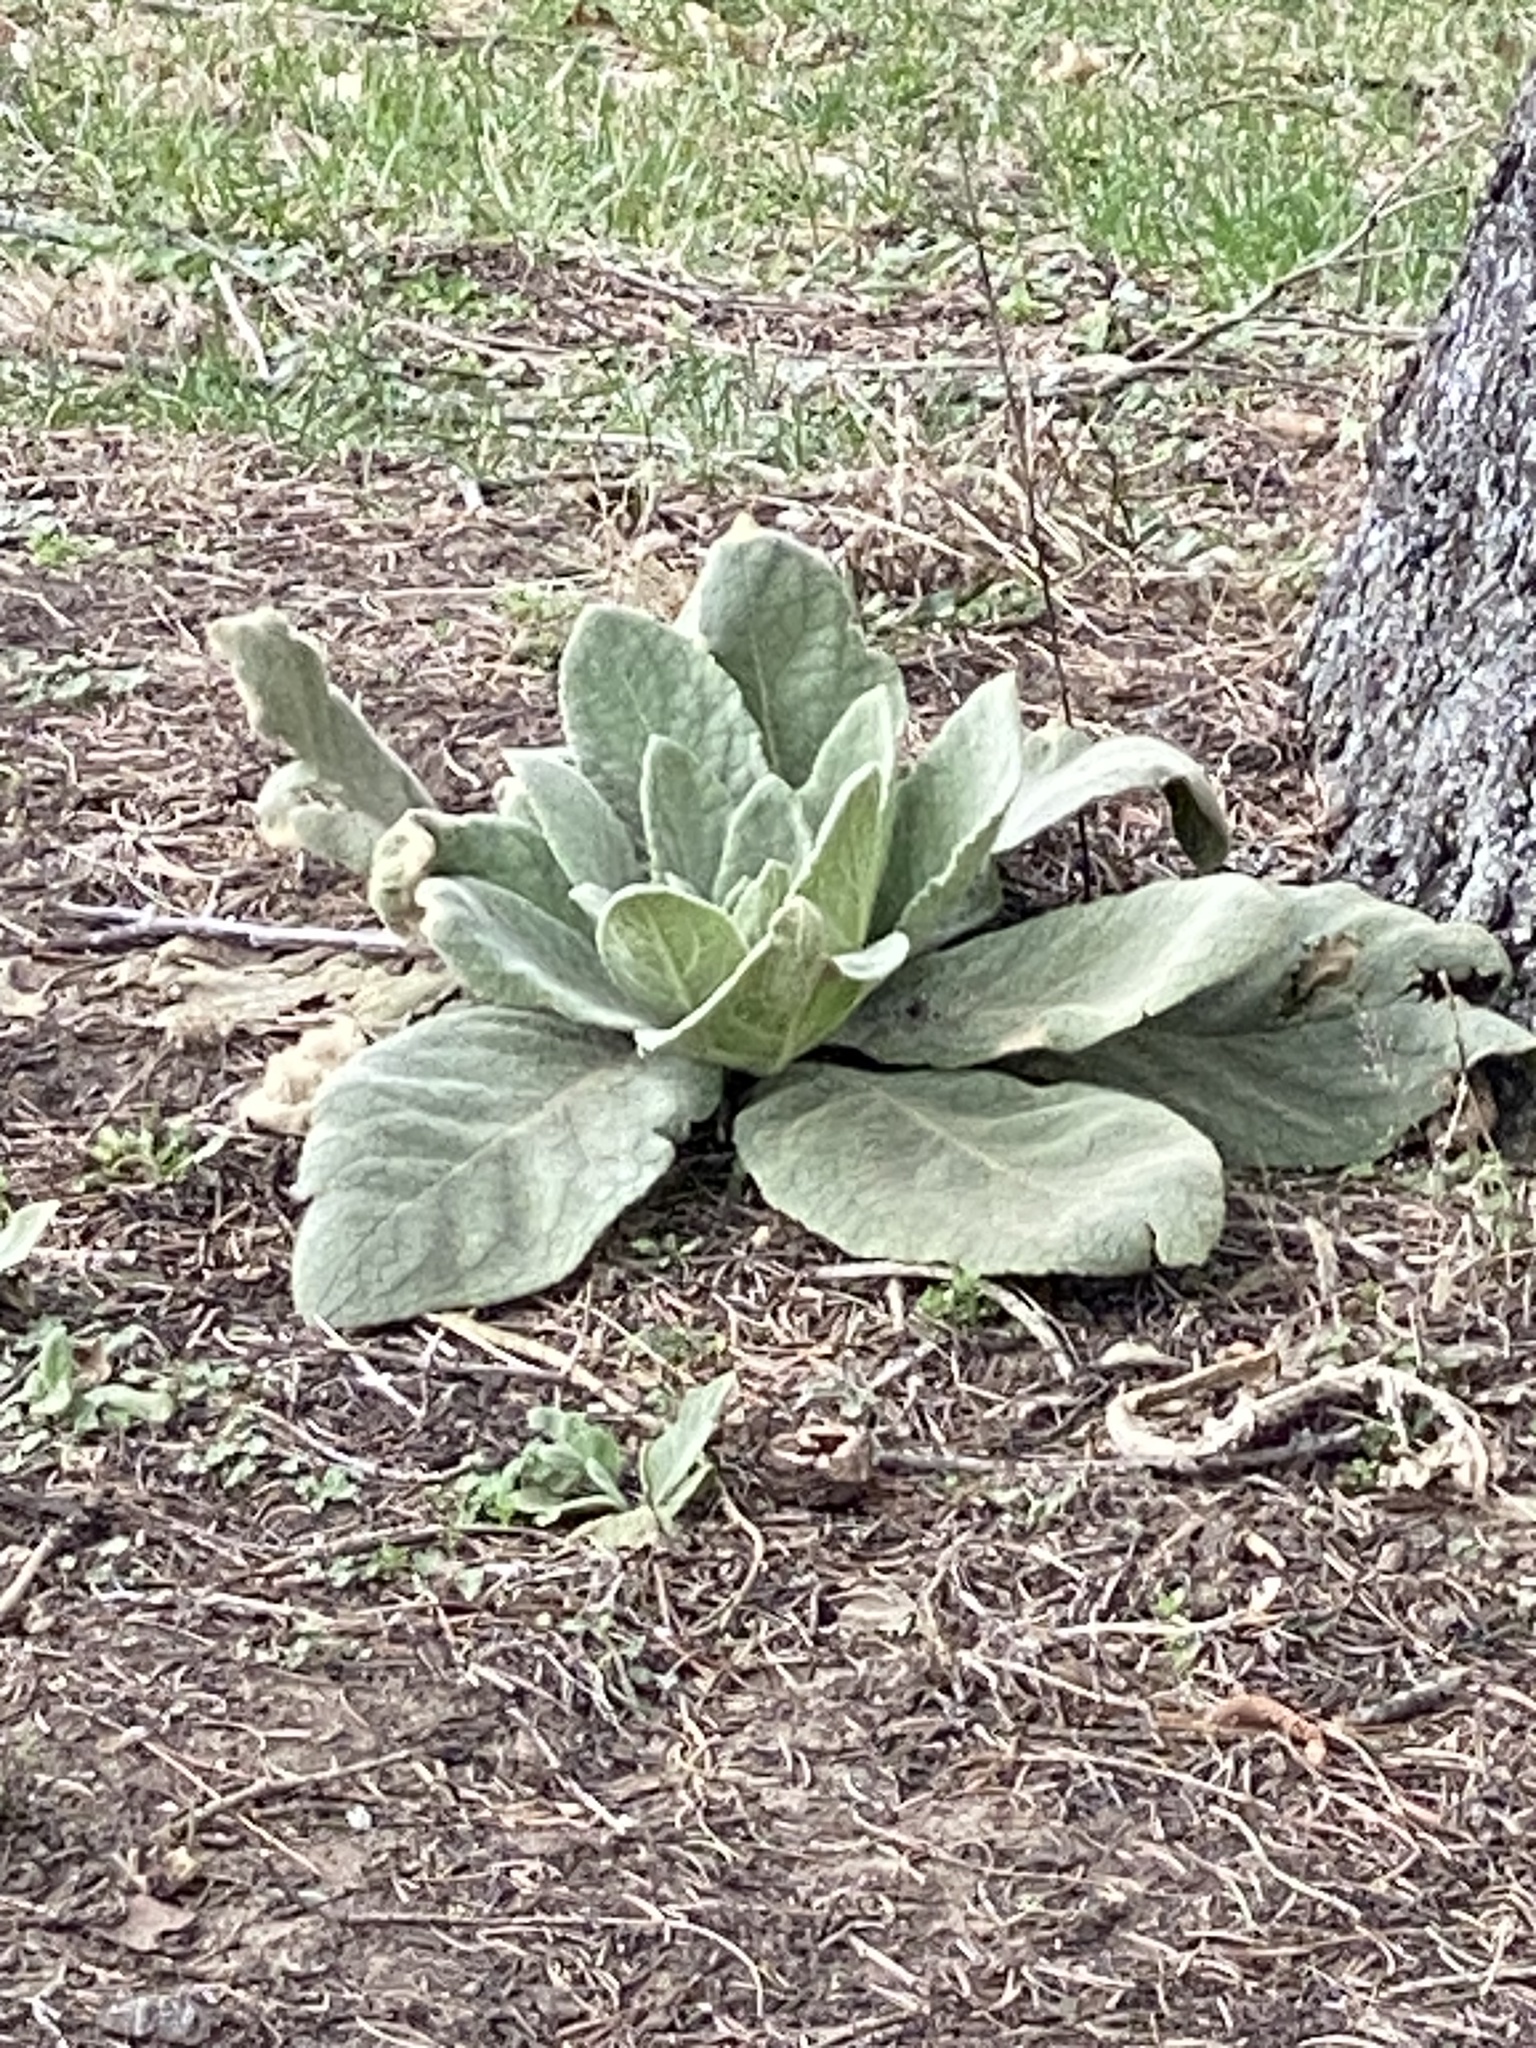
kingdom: Plantae
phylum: Tracheophyta
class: Magnoliopsida
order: Lamiales
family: Scrophulariaceae
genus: Verbascum
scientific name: Verbascum thapsus
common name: Common mullein
